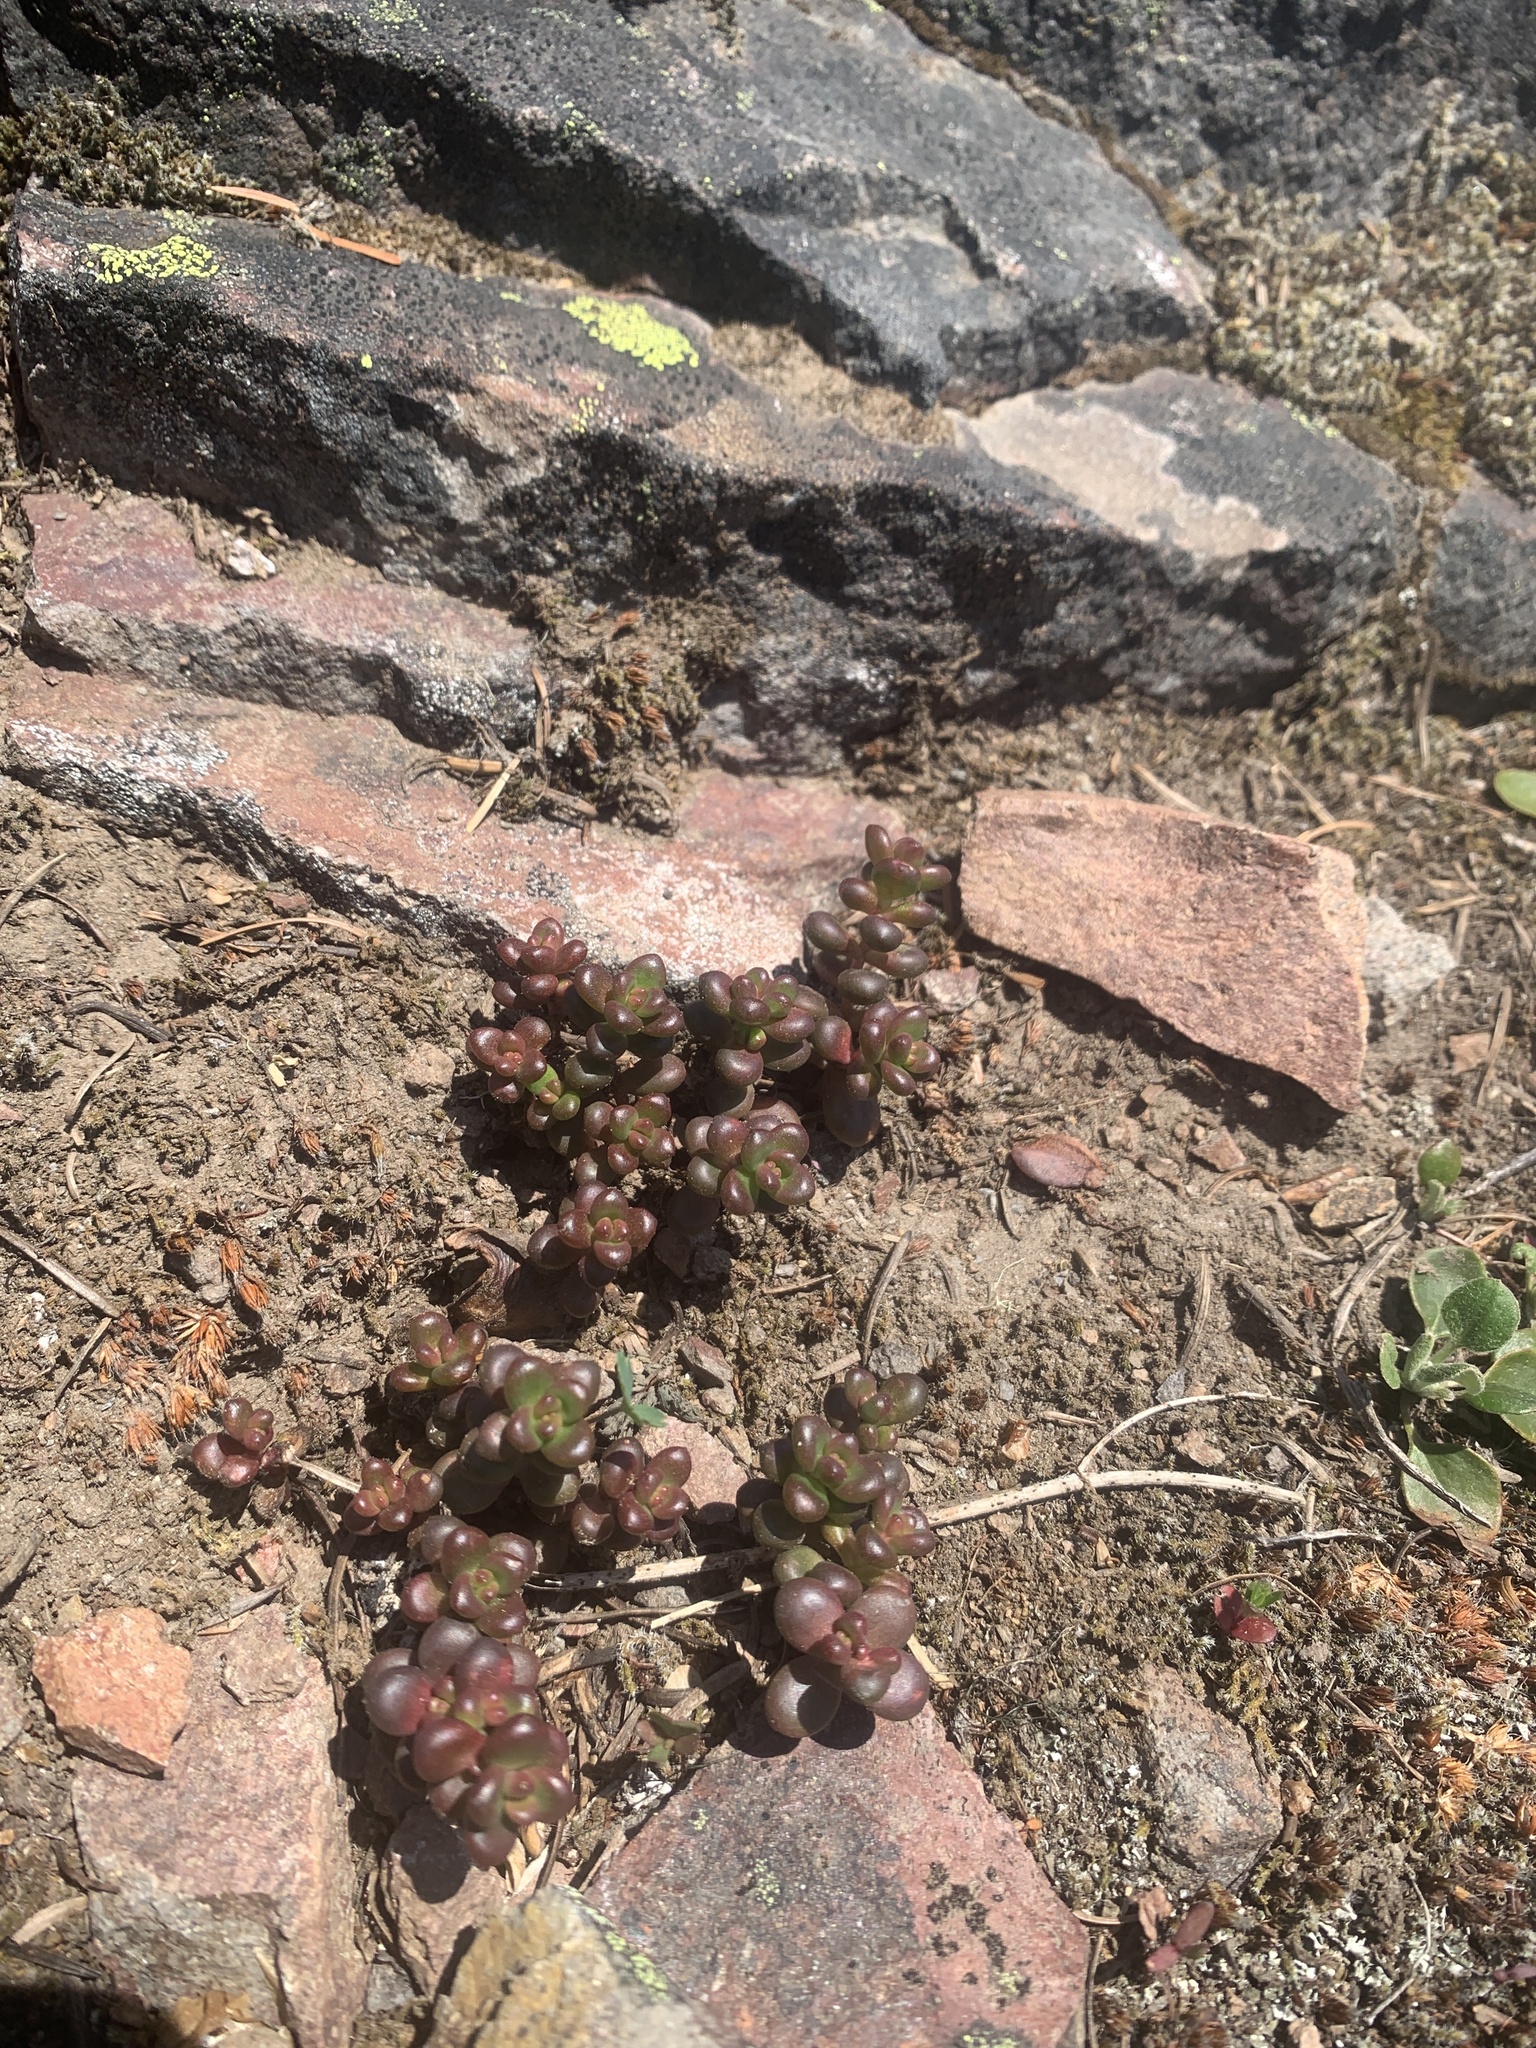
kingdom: Plantae
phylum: Tracheophyta
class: Magnoliopsida
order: Saxifragales
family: Crassulaceae
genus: Sedum
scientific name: Sedum divergens
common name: Cascade stonecrop
